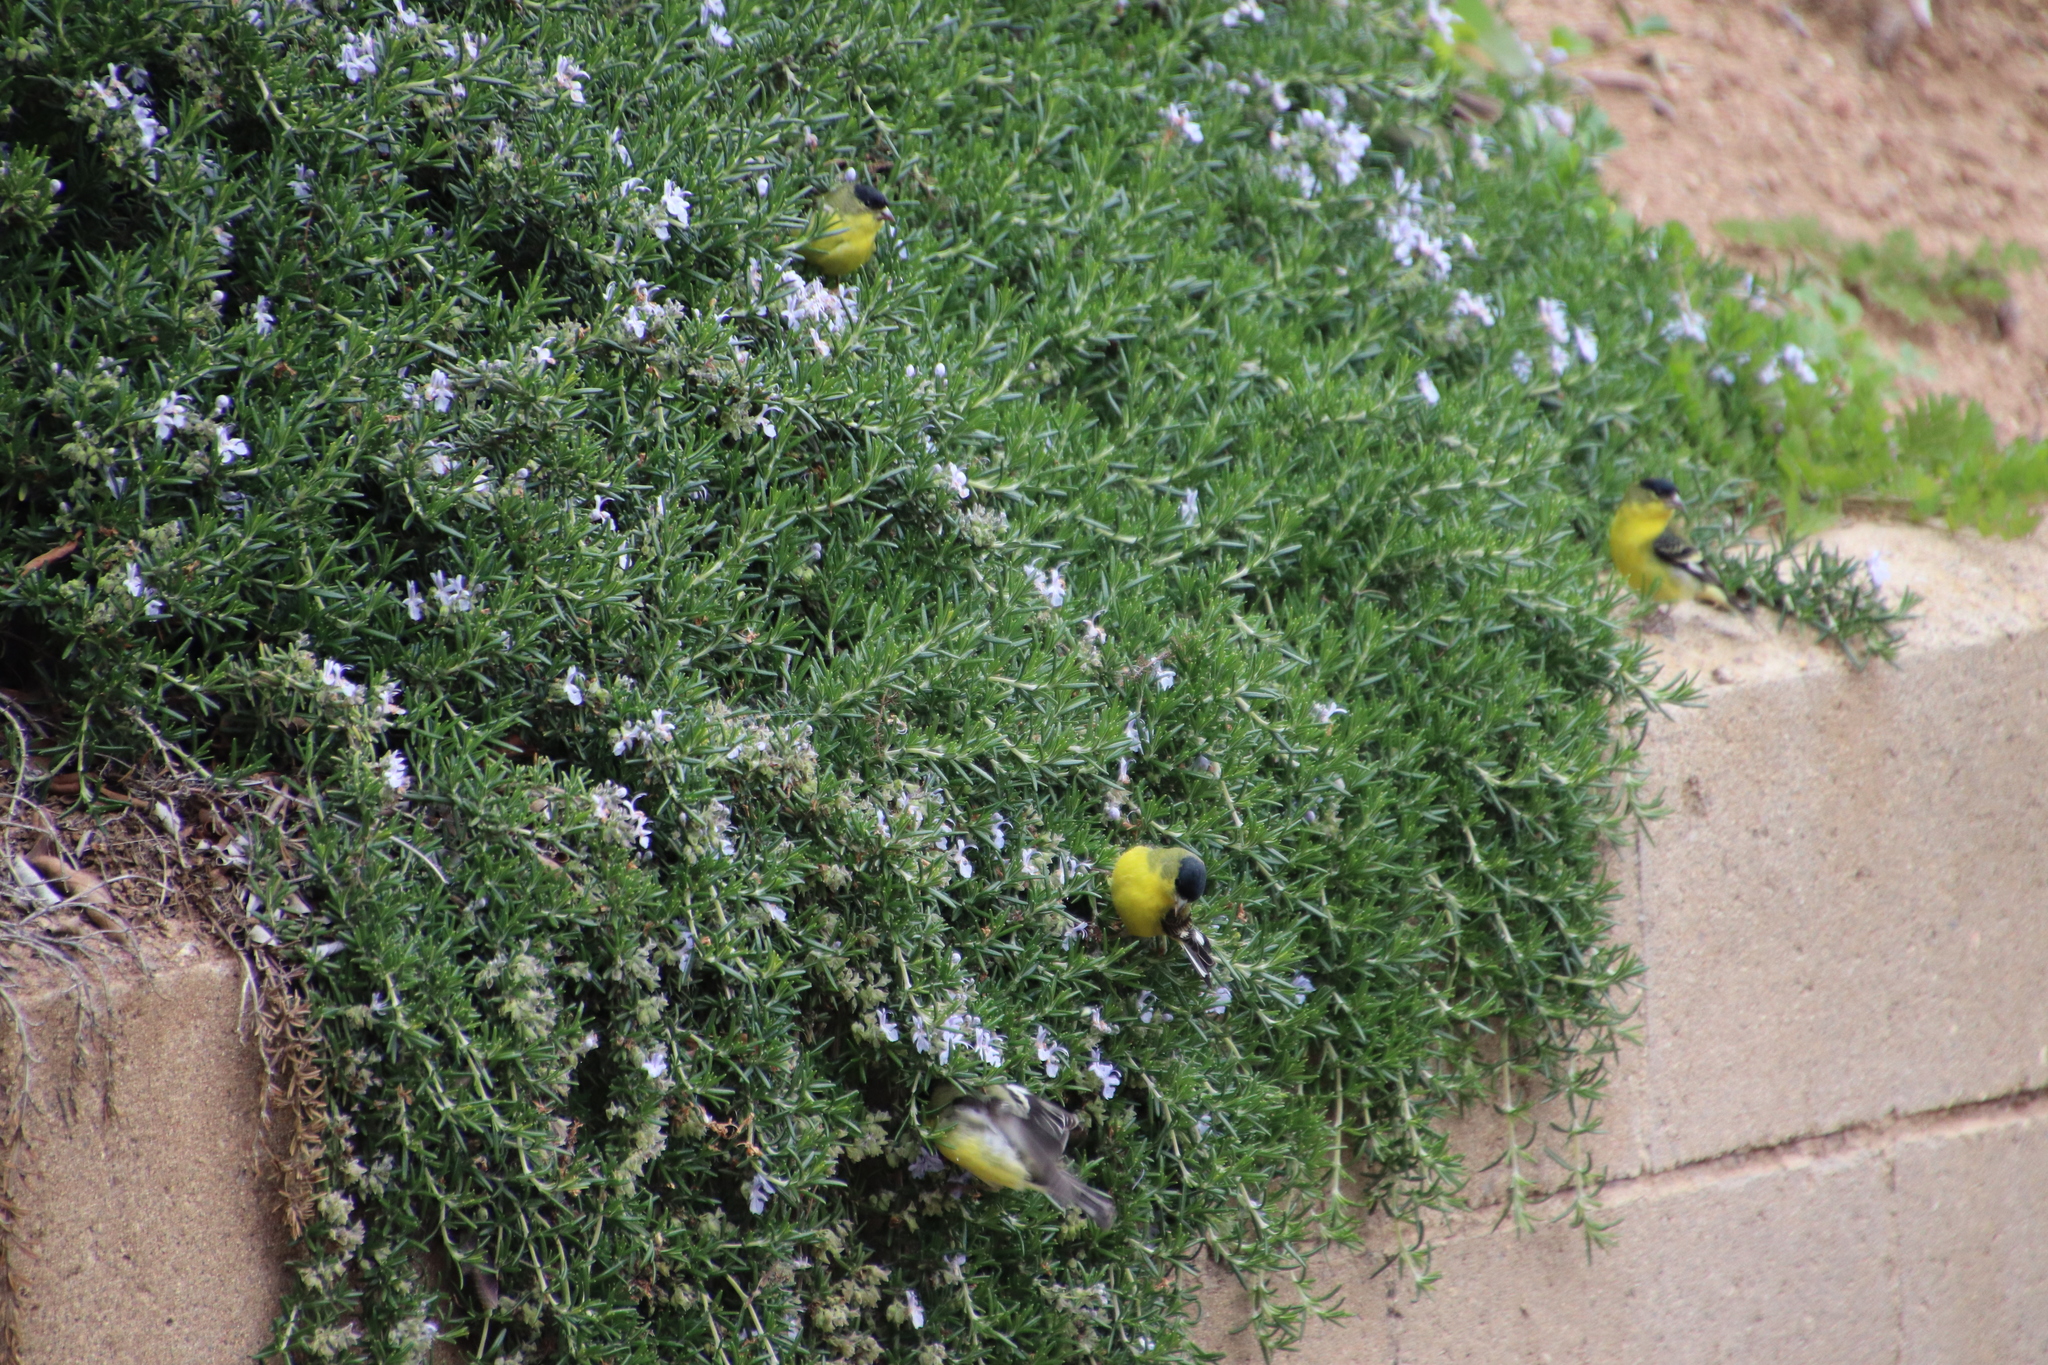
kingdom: Animalia
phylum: Chordata
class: Aves
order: Passeriformes
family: Fringillidae
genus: Spinus
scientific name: Spinus psaltria
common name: Lesser goldfinch
